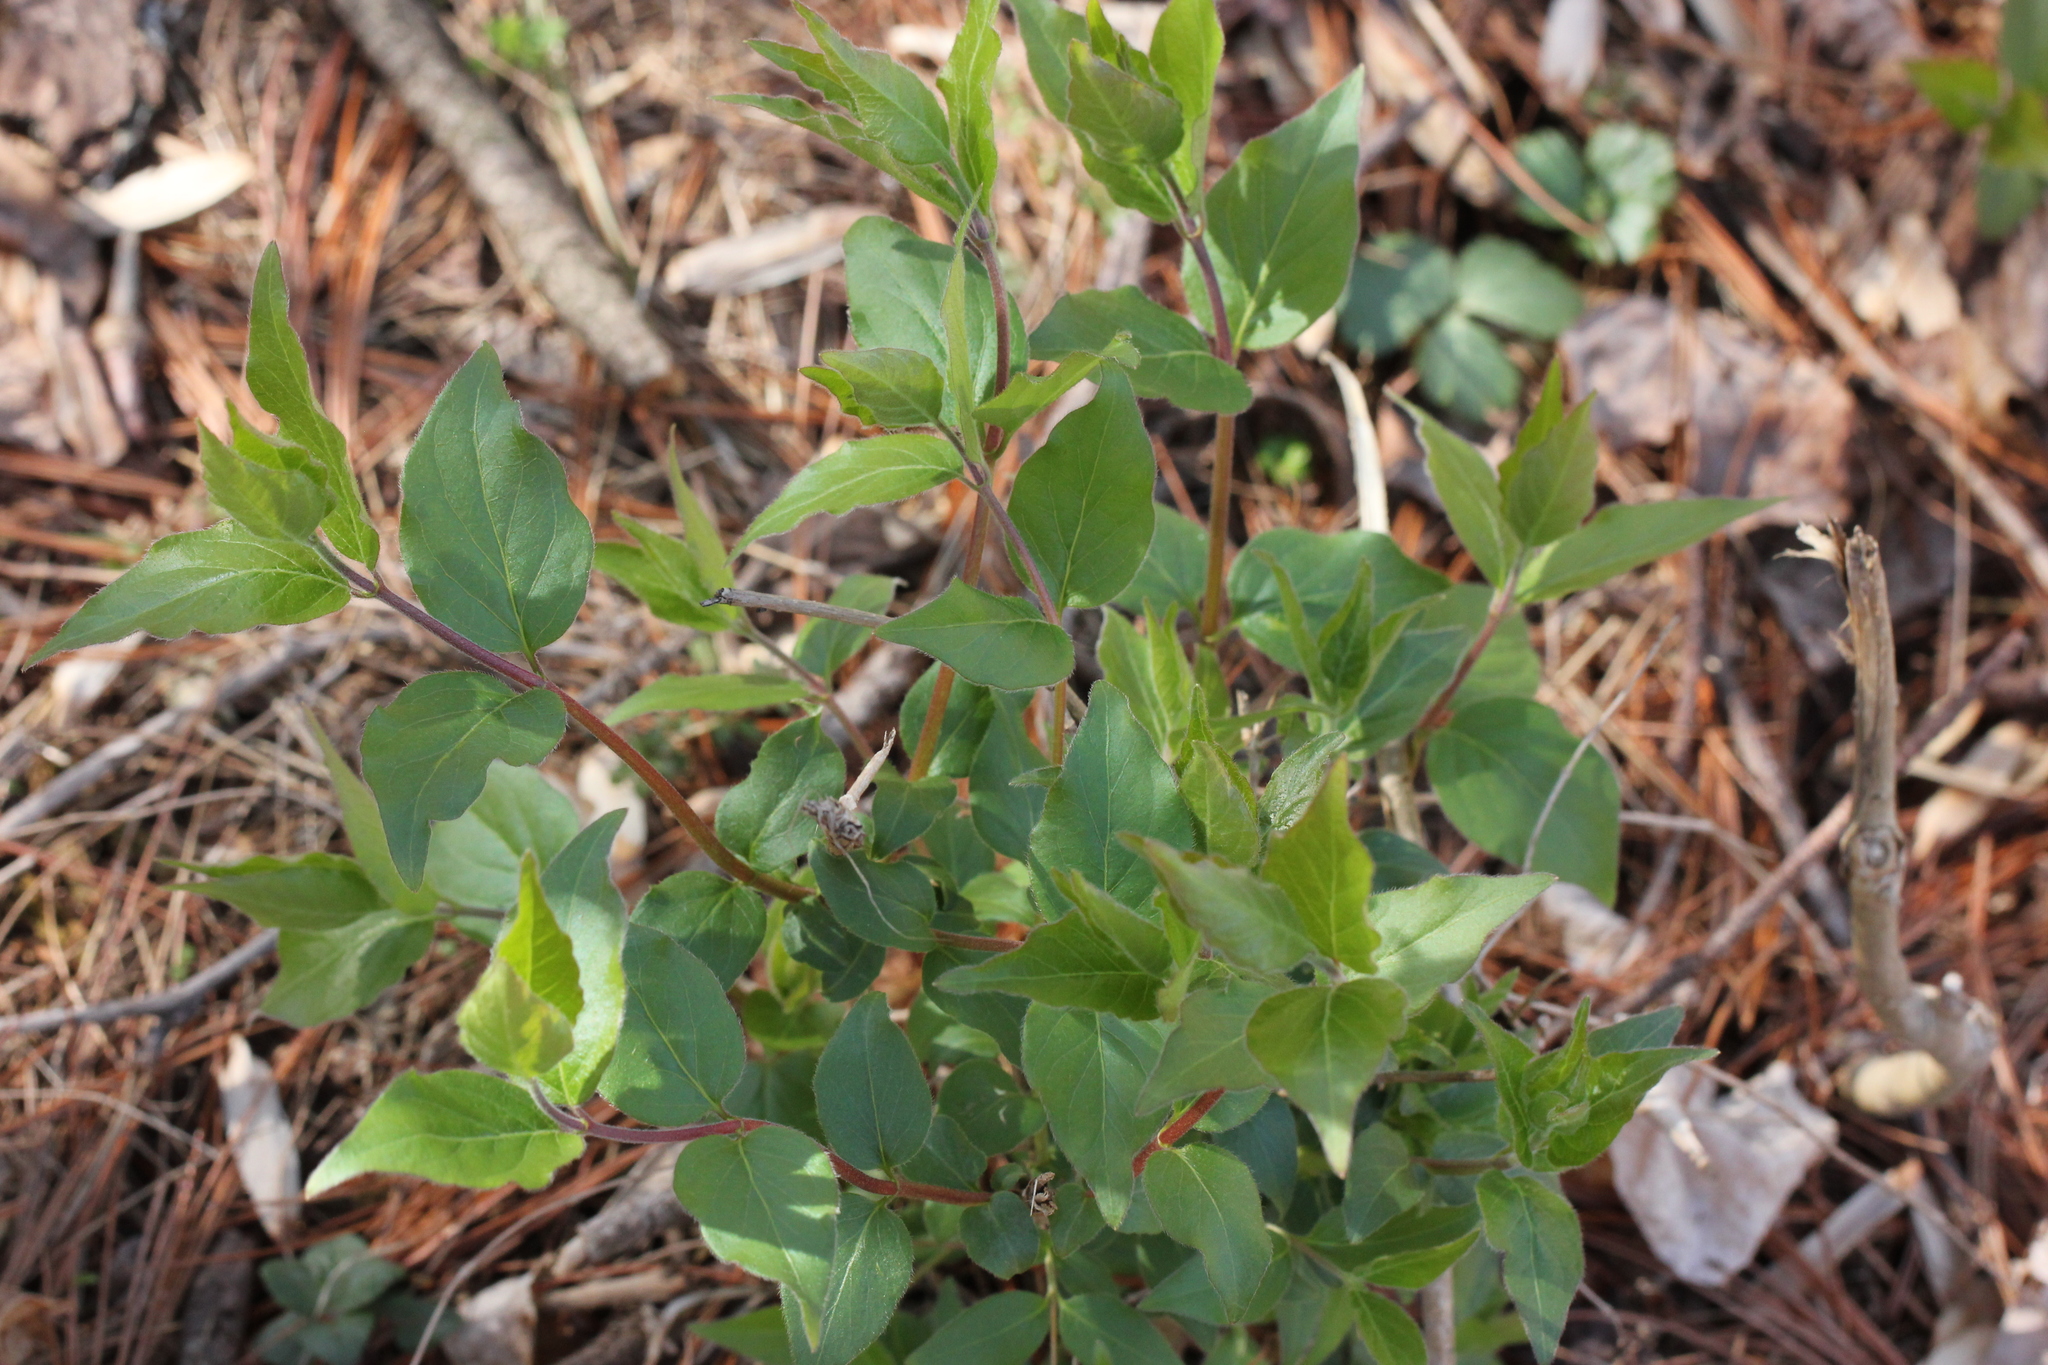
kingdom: Plantae
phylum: Tracheophyta
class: Magnoliopsida
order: Dipsacales
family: Caprifoliaceae
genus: Lonicera
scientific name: Lonicera maackii
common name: Amur honeysuckle
